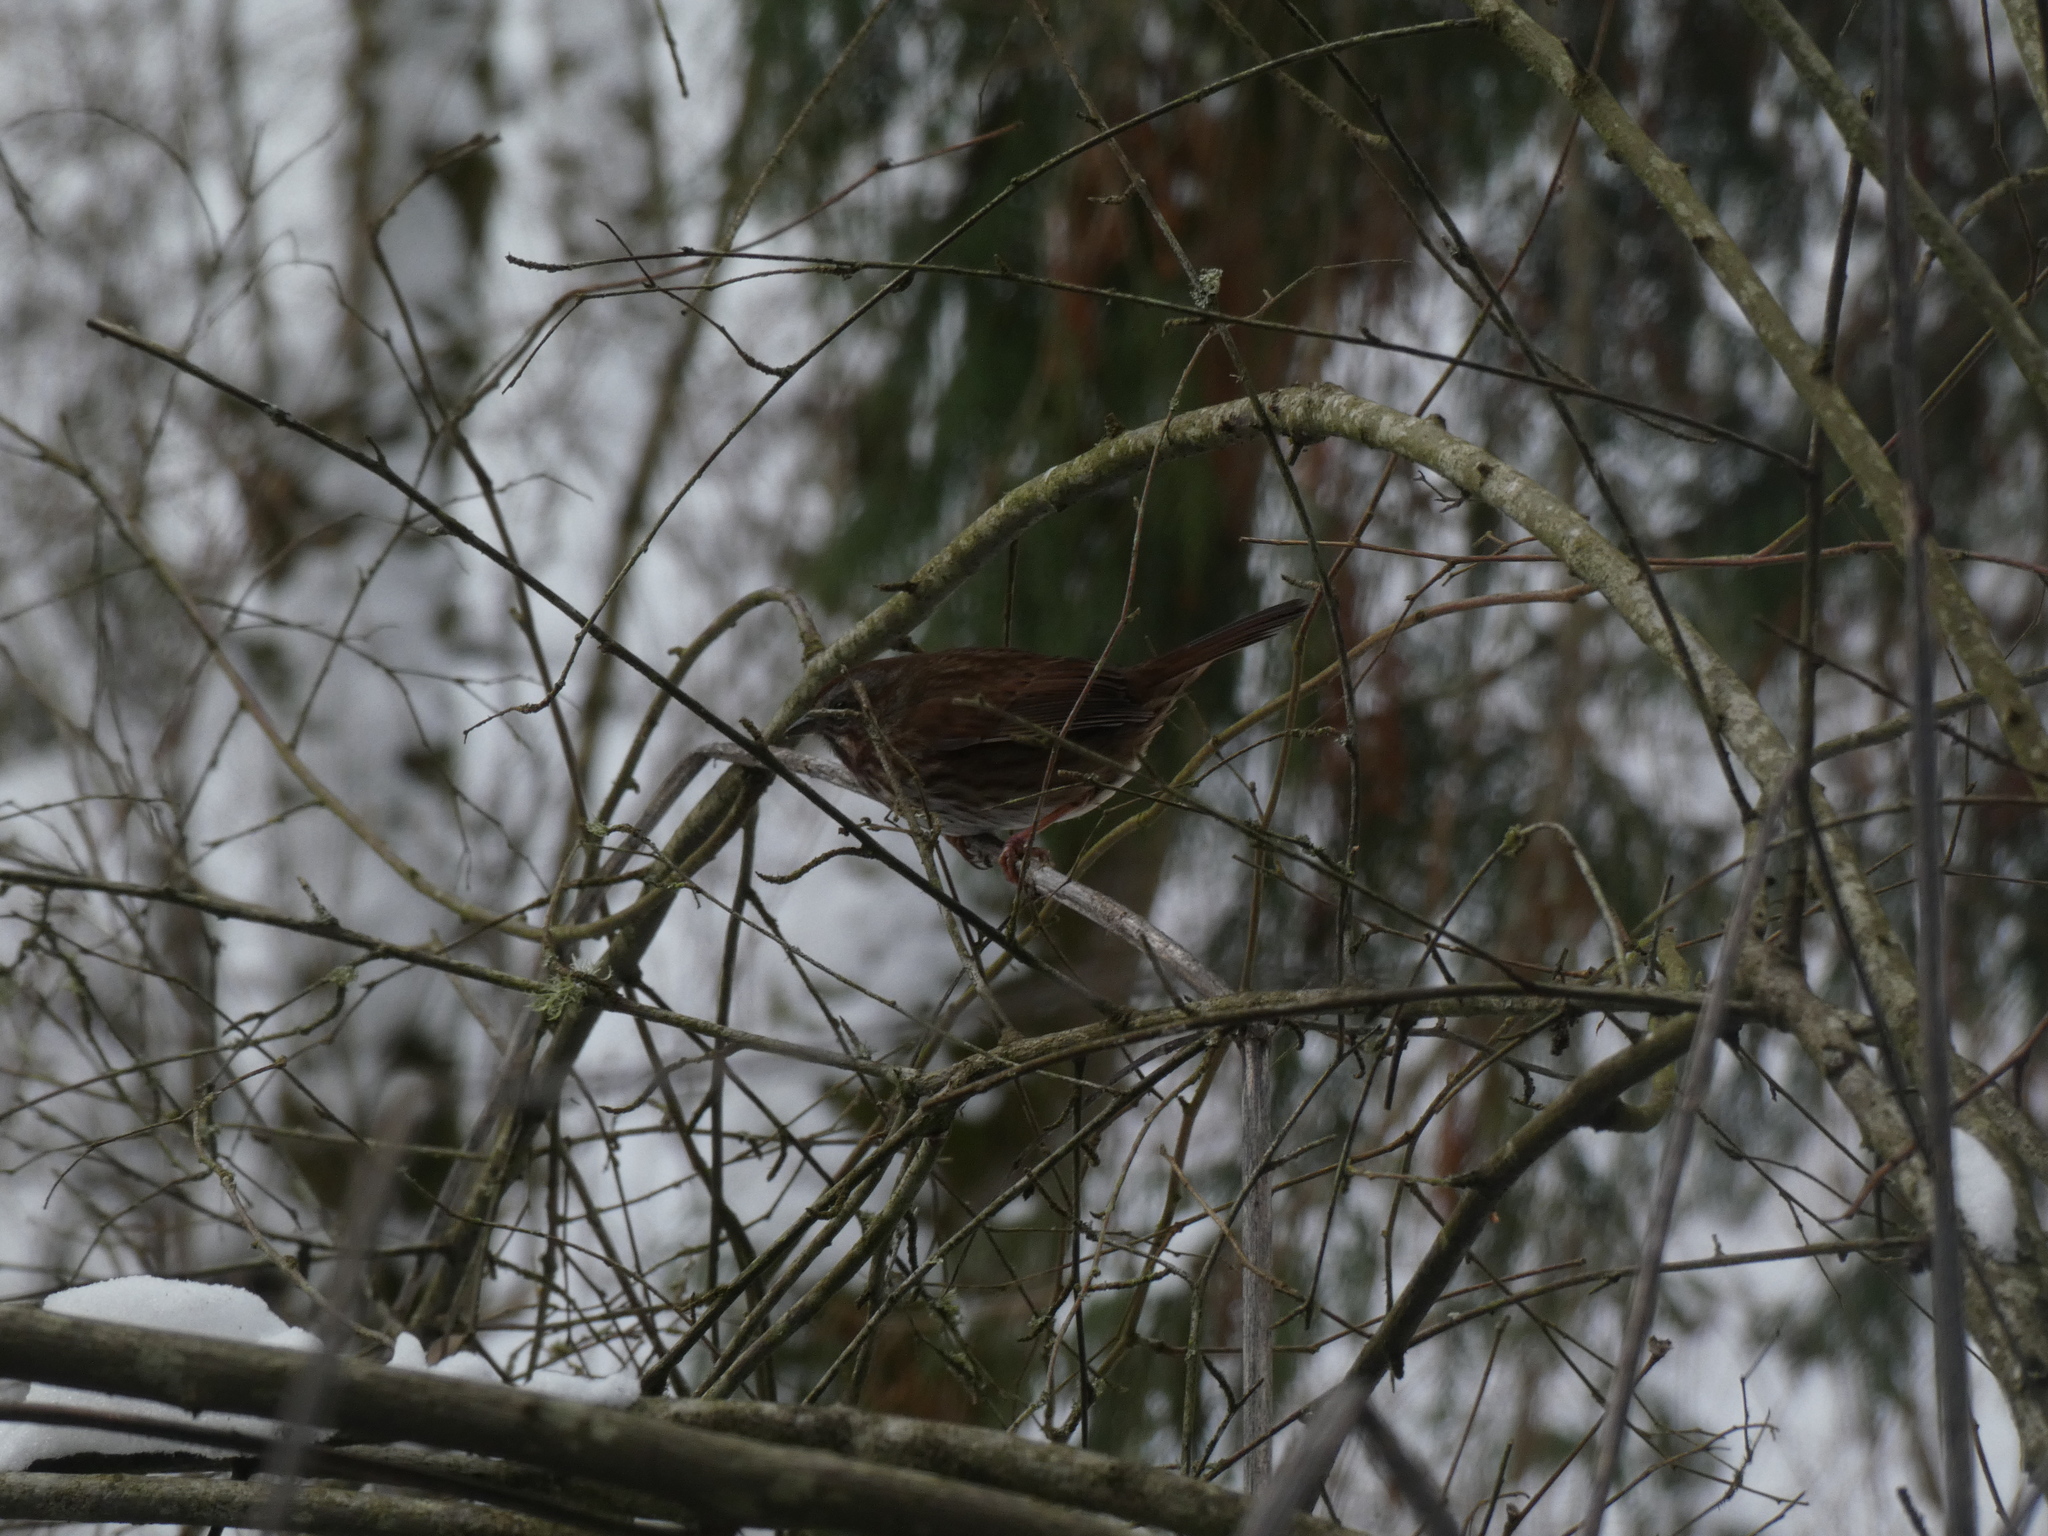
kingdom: Animalia
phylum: Chordata
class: Aves
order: Passeriformes
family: Passerellidae
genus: Melospiza
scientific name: Melospiza melodia
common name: Song sparrow
